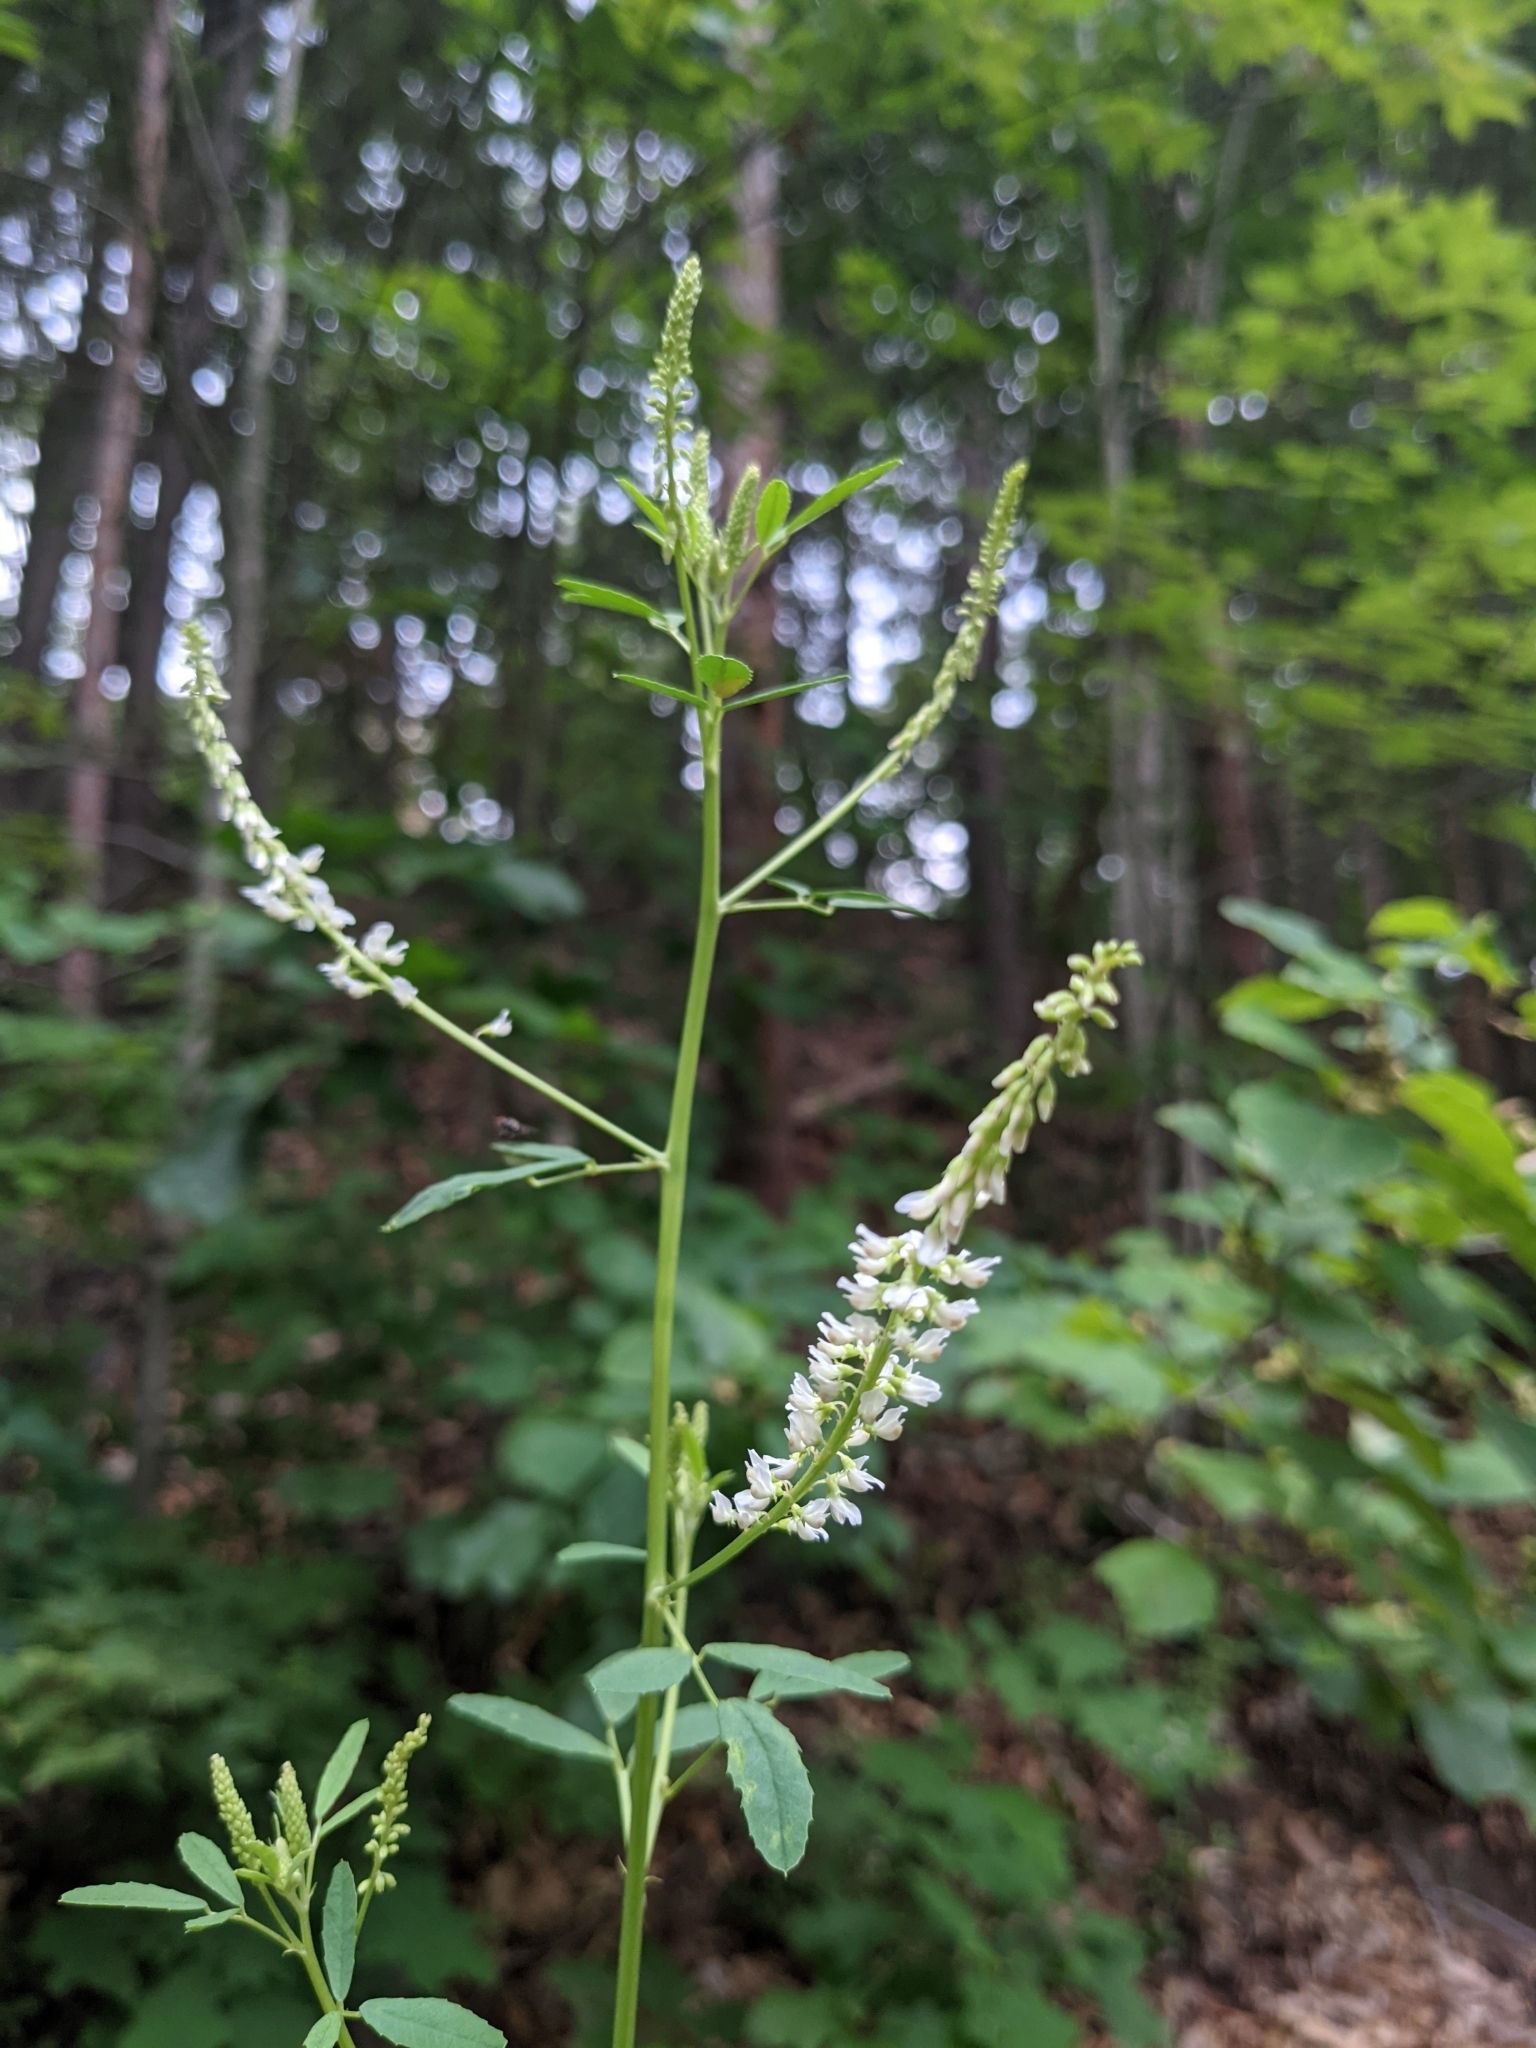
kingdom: Plantae
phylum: Tracheophyta
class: Magnoliopsida
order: Fabales
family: Fabaceae
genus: Melilotus
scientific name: Melilotus albus
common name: White melilot
